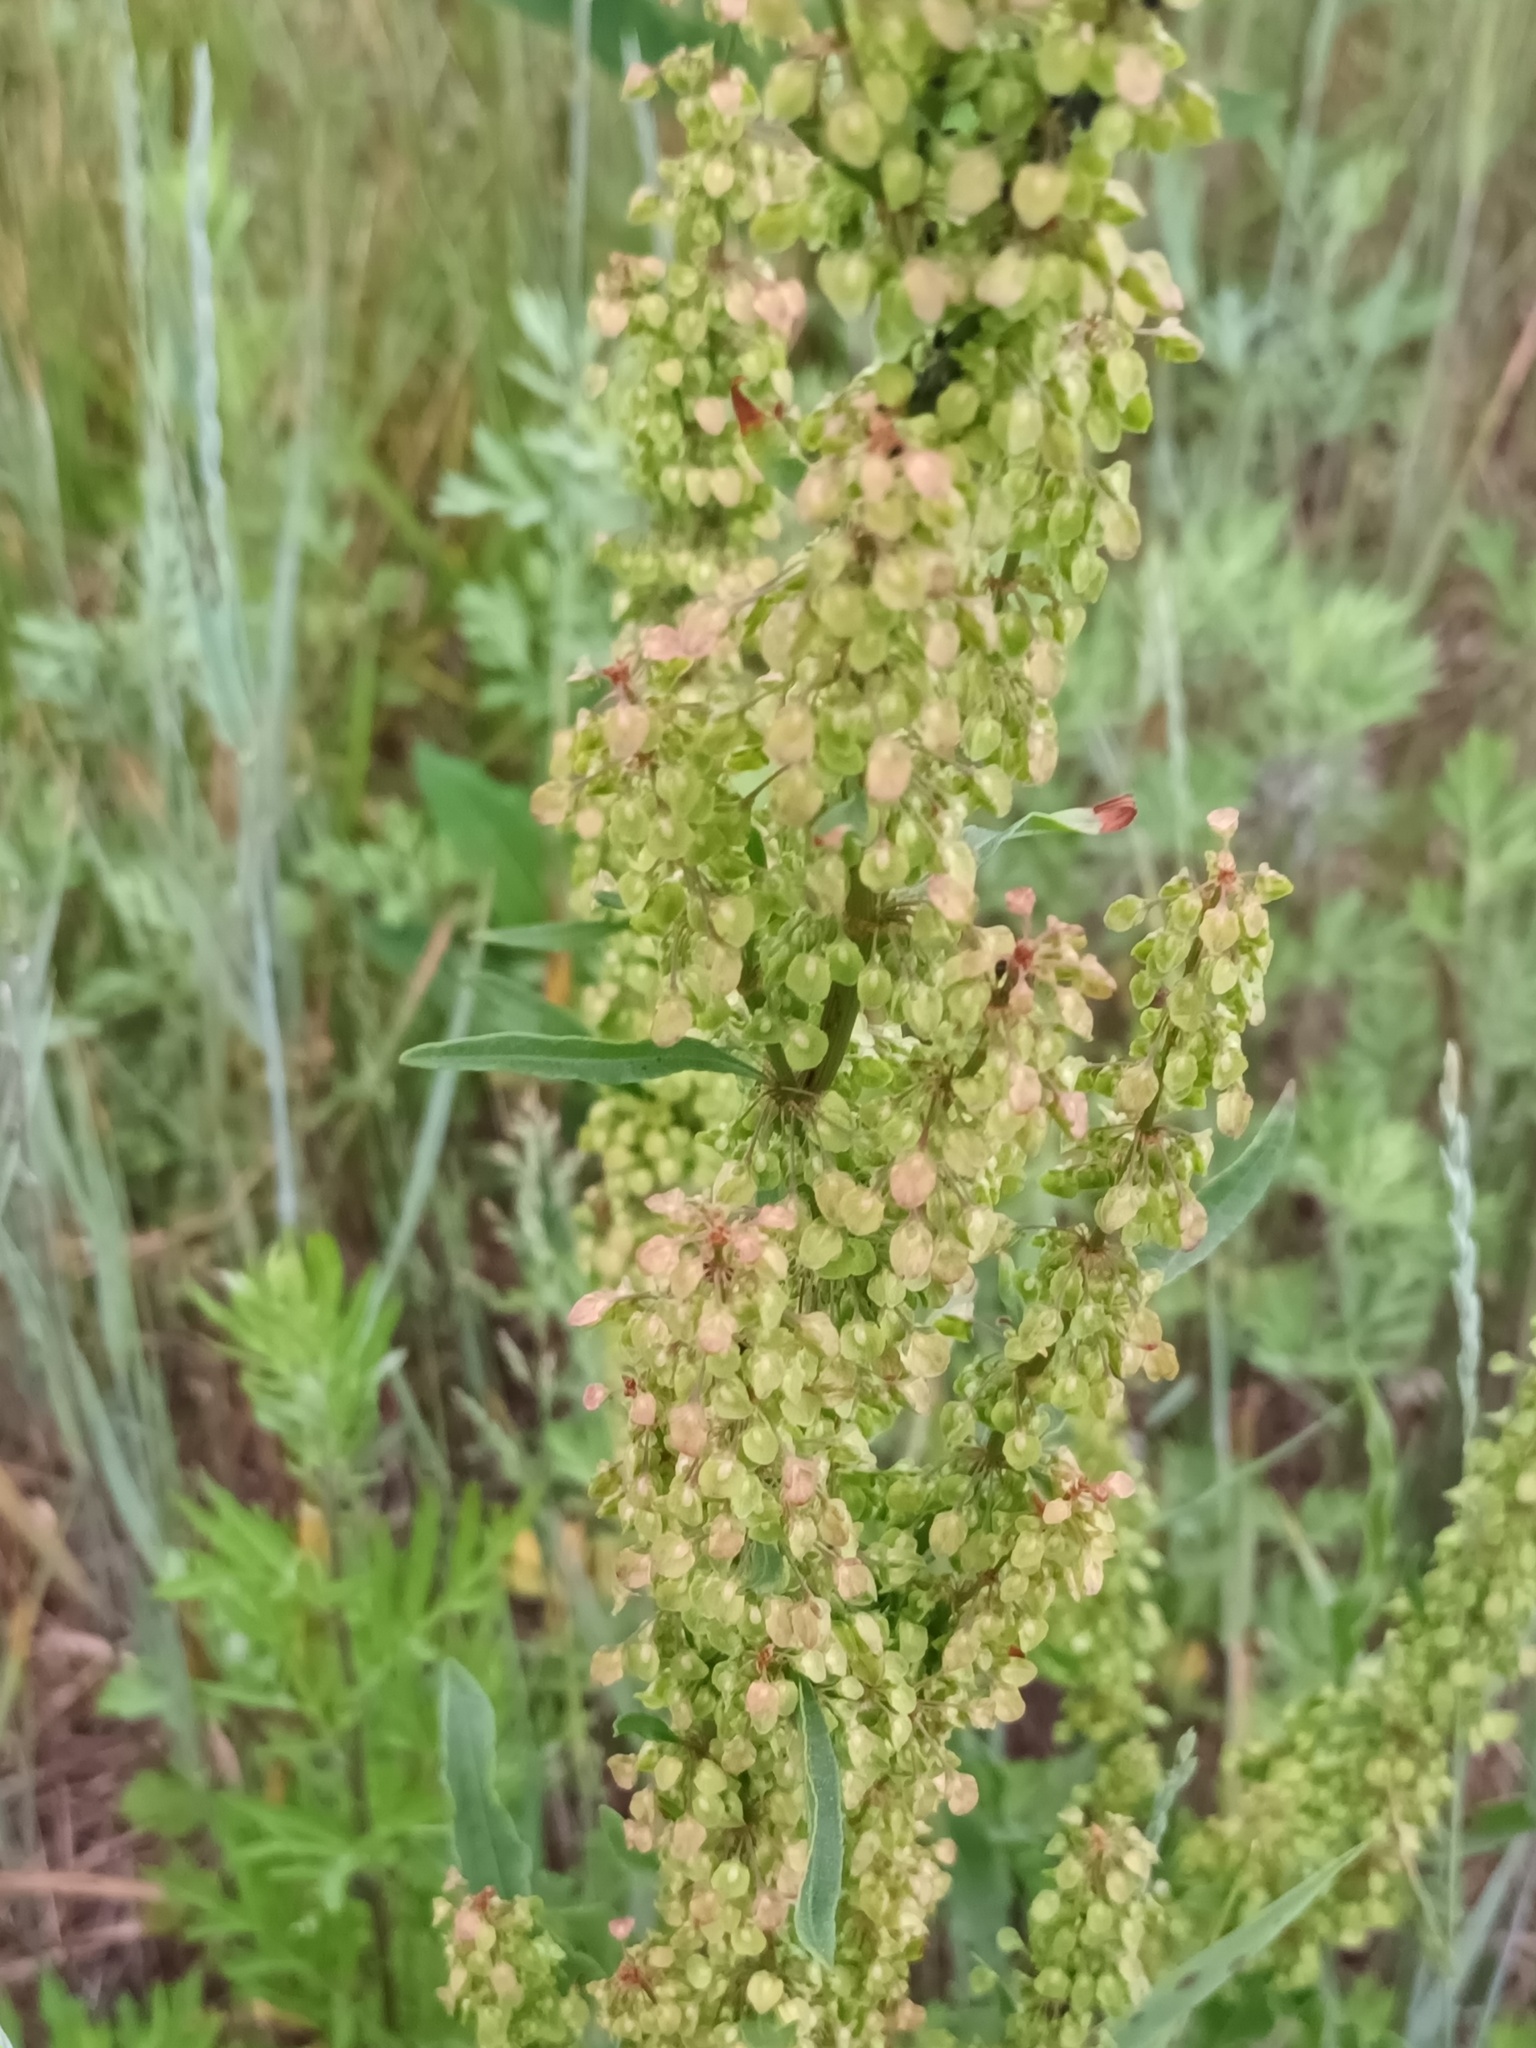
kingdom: Plantae
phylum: Tracheophyta
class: Magnoliopsida
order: Caryophyllales
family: Polygonaceae
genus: Rumex
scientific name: Rumex crispus
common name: Curled dock
